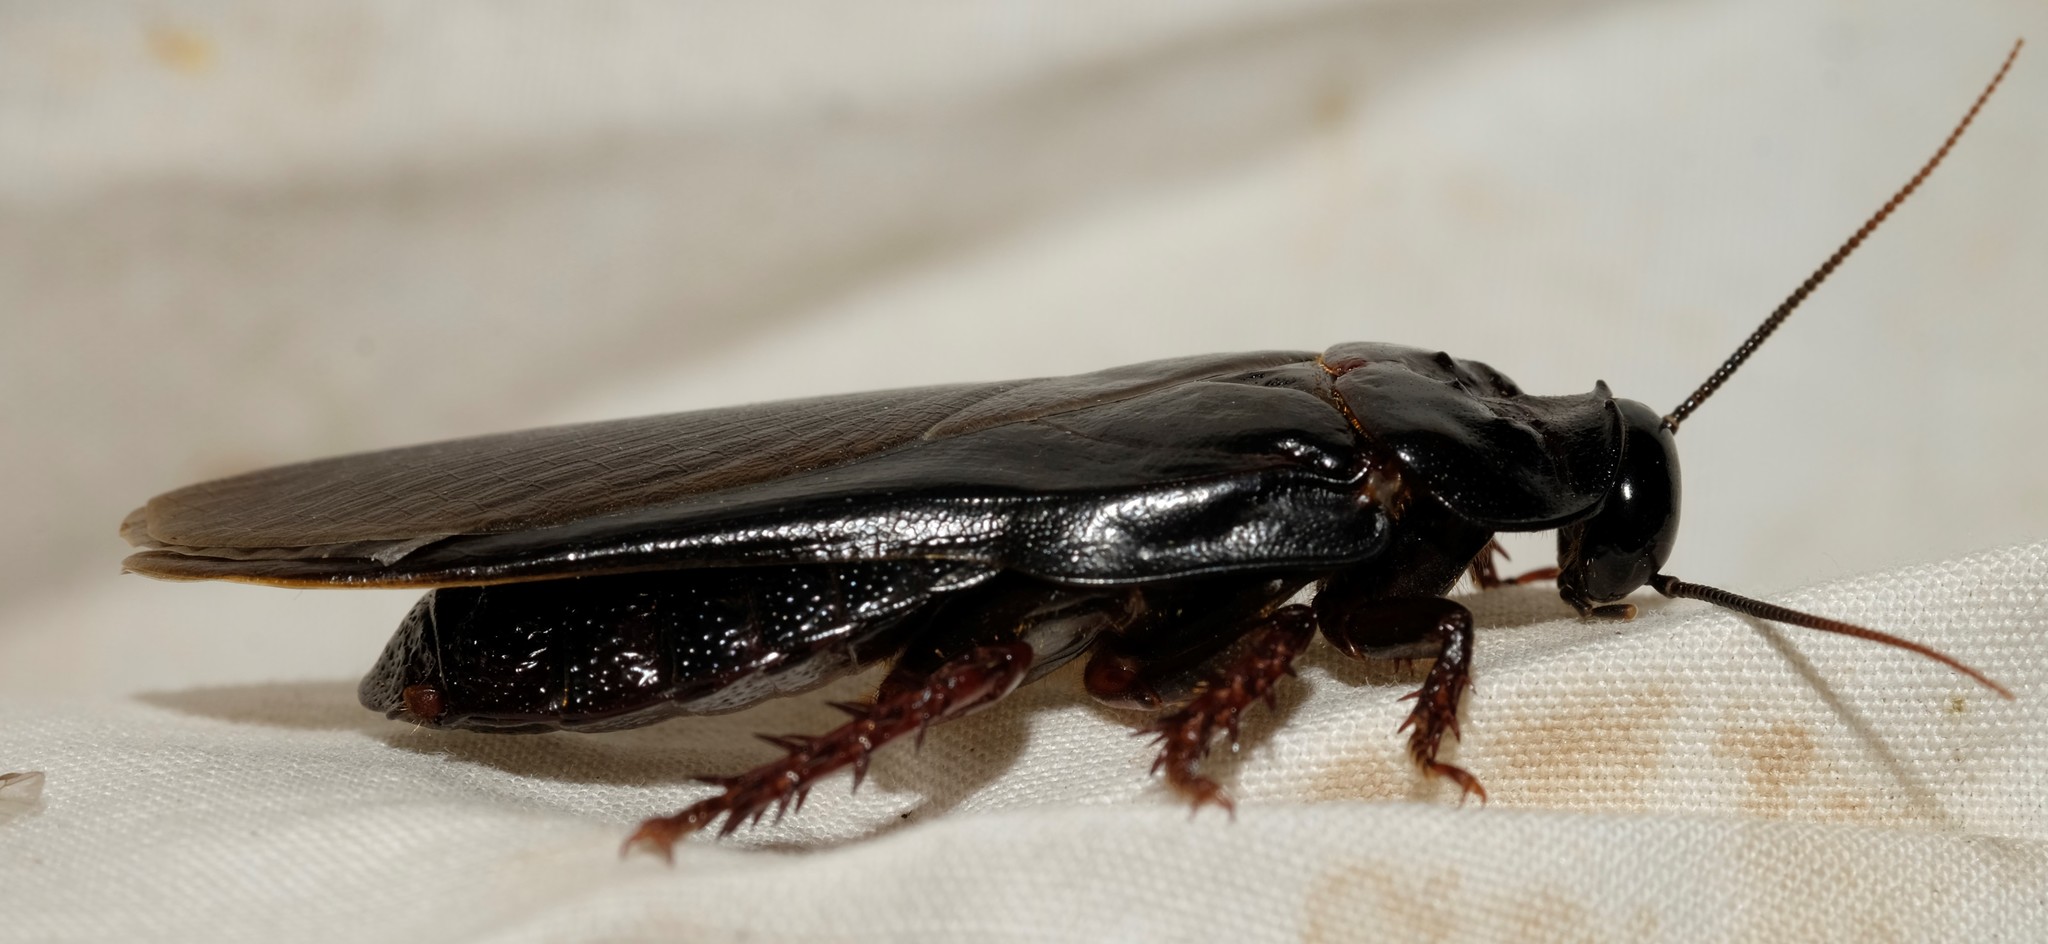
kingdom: Animalia
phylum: Arthropoda
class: Insecta
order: Blattodea
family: Blaberidae
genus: Panesthia
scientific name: Panesthia australis
